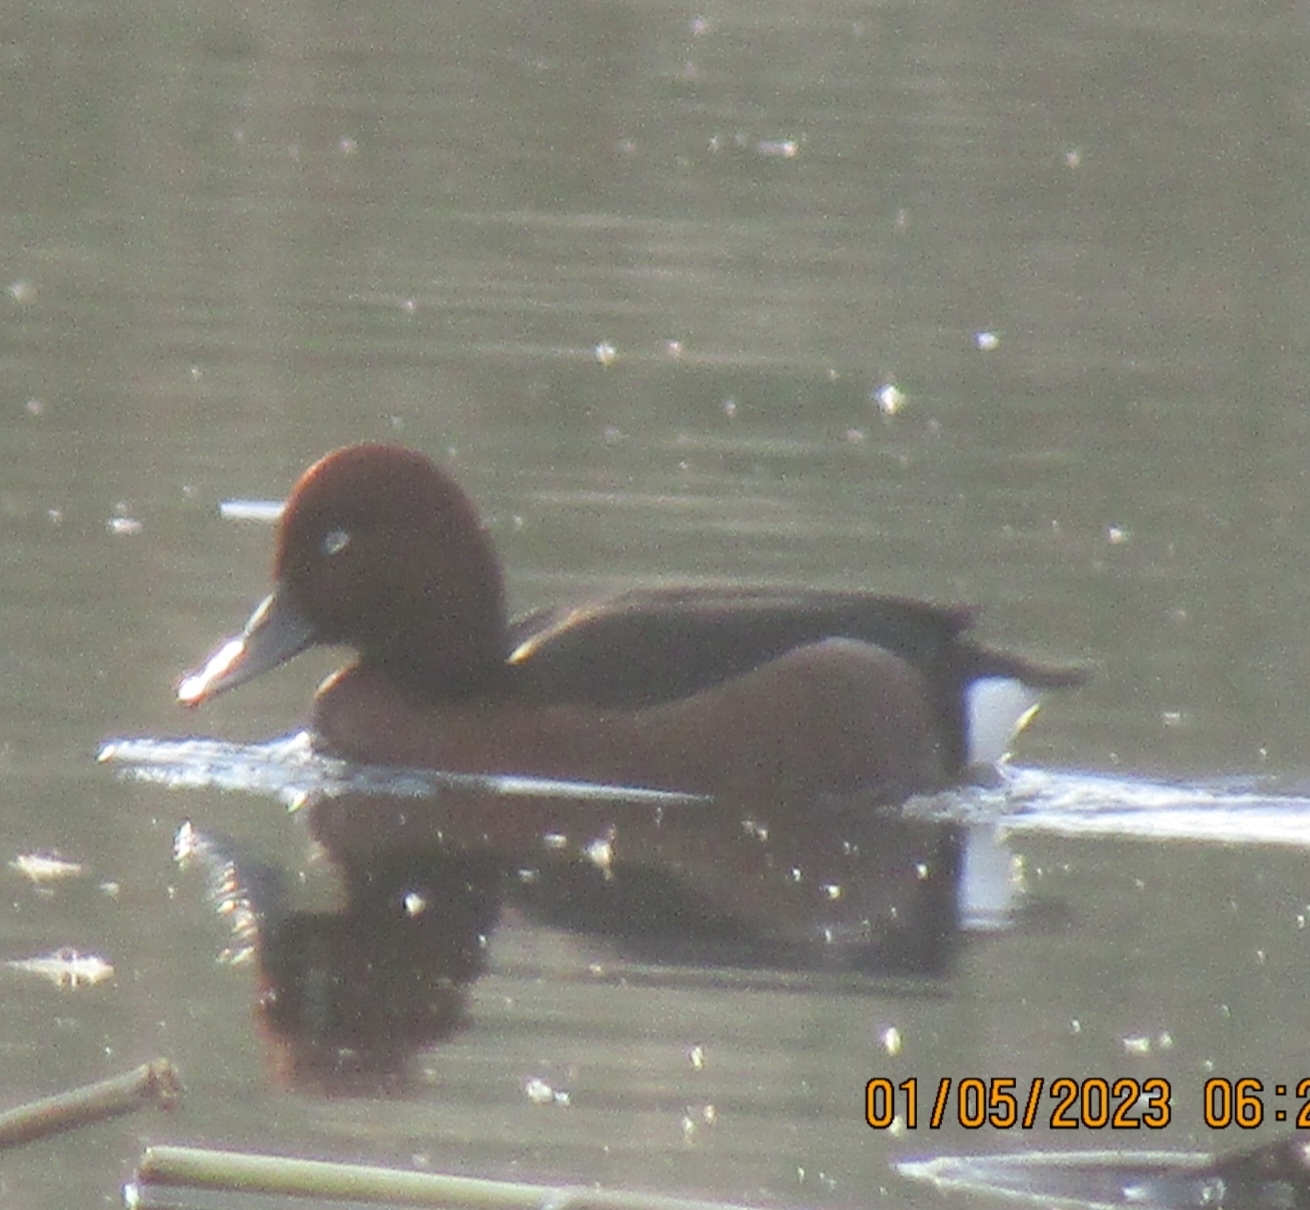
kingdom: Animalia
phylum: Chordata
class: Aves
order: Anseriformes
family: Anatidae
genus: Aythya
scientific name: Aythya nyroca
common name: Ferruginous duck
